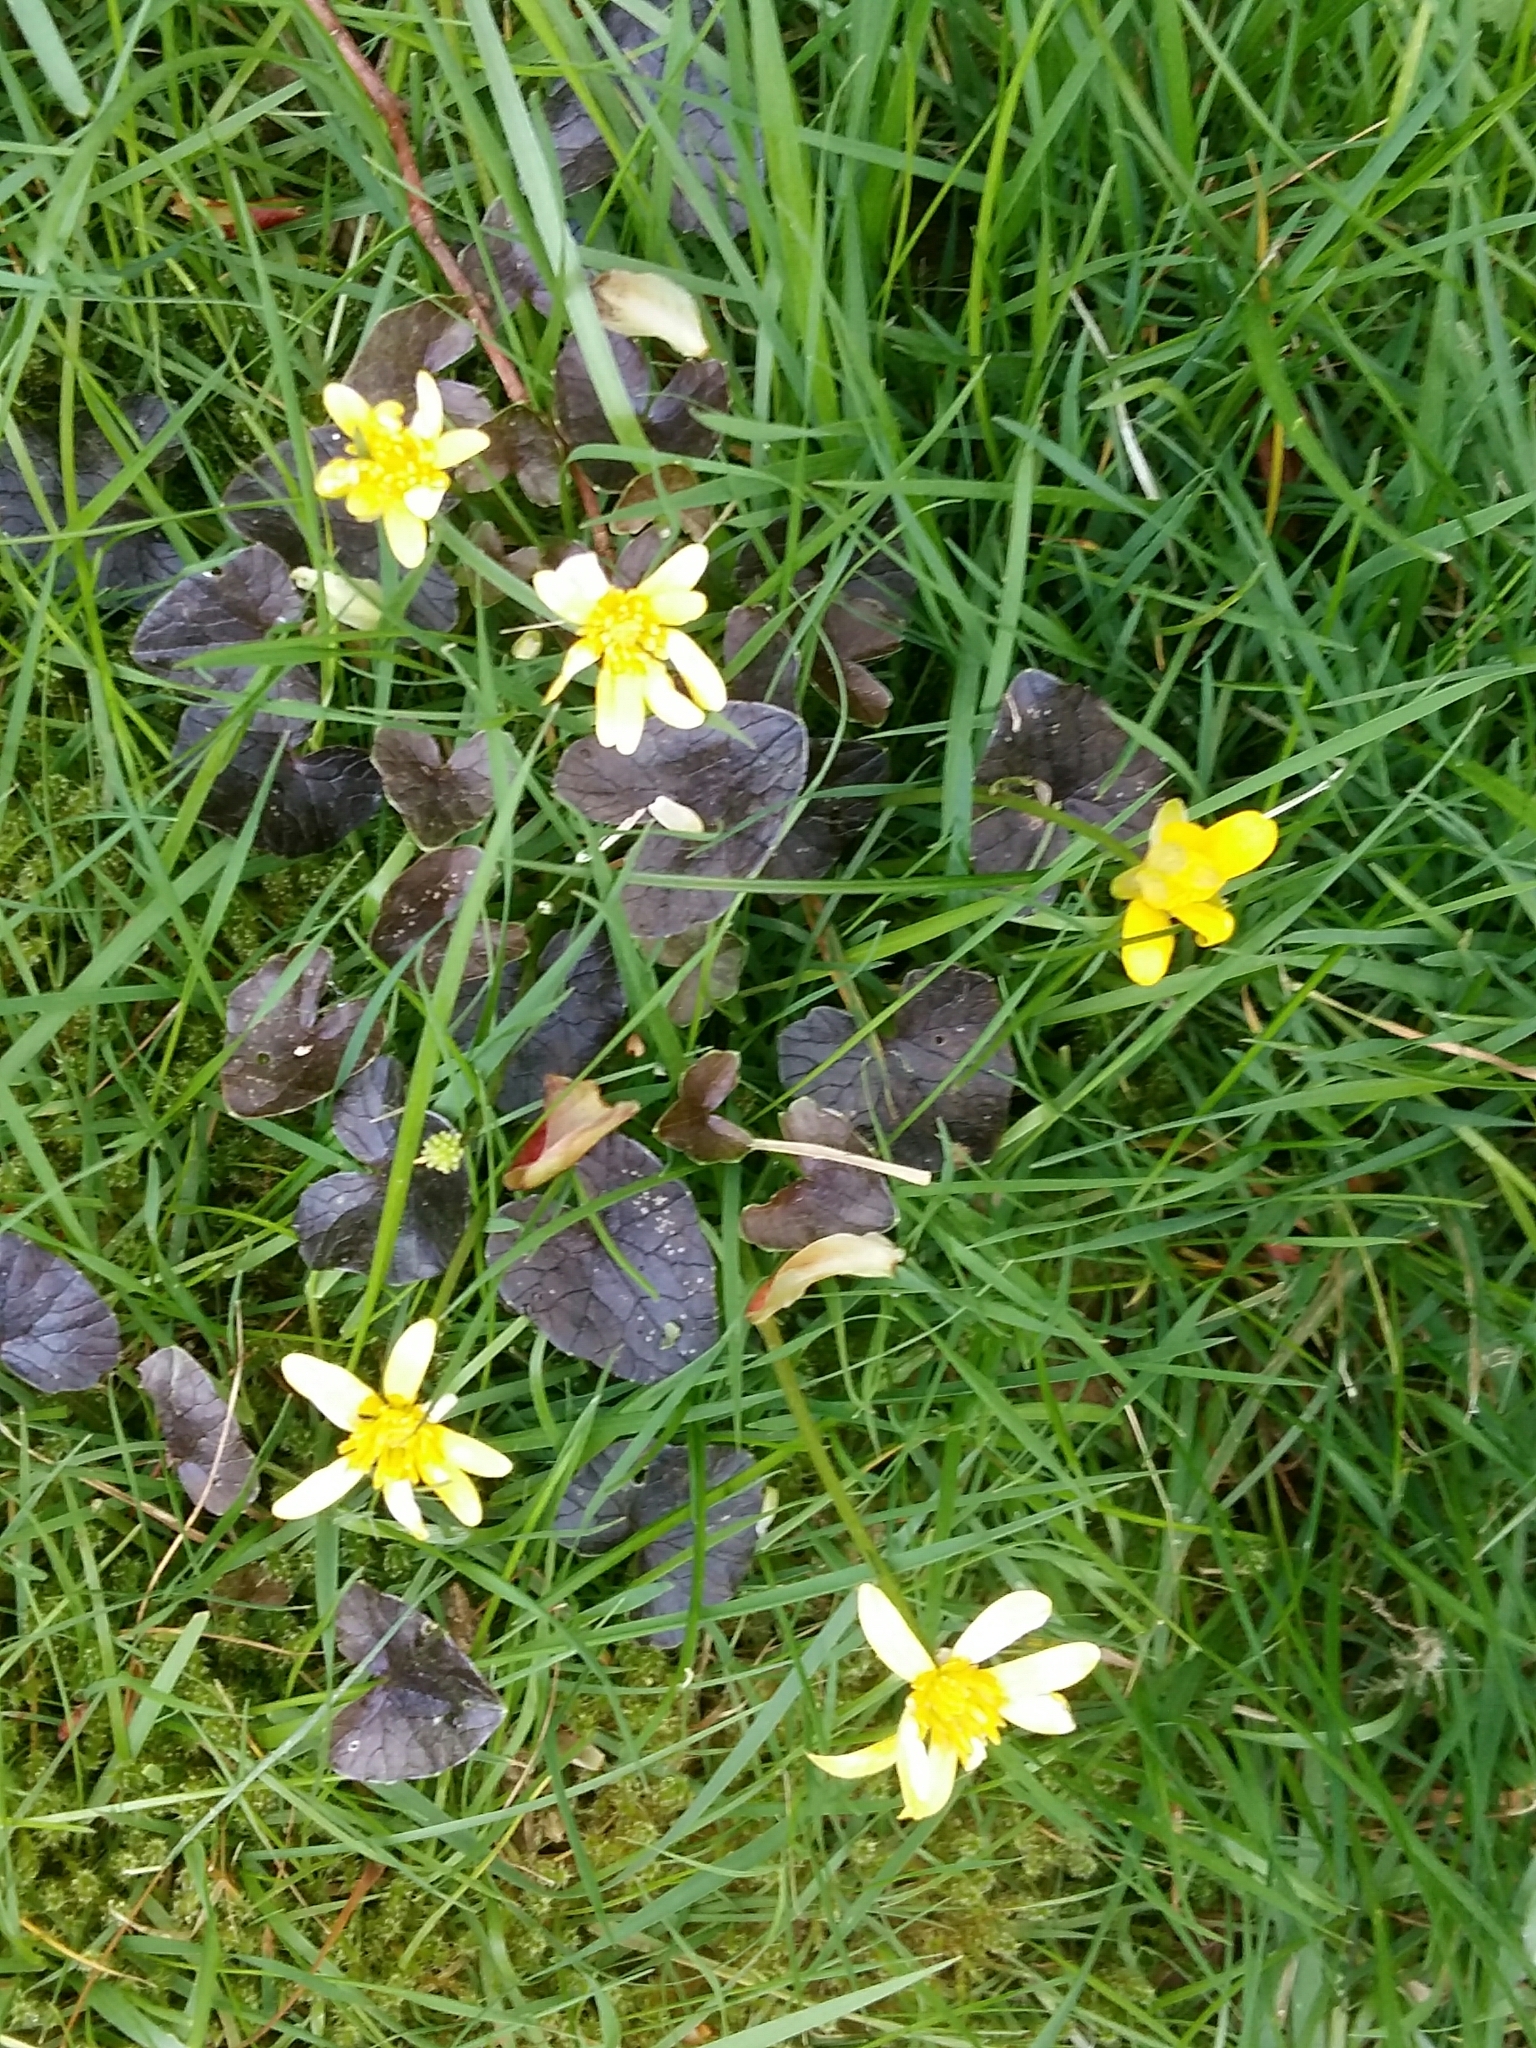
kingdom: Plantae
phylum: Tracheophyta
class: Magnoliopsida
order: Ranunculales
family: Ranunculaceae
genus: Ficaria
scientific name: Ficaria verna
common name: Lesser celandine
